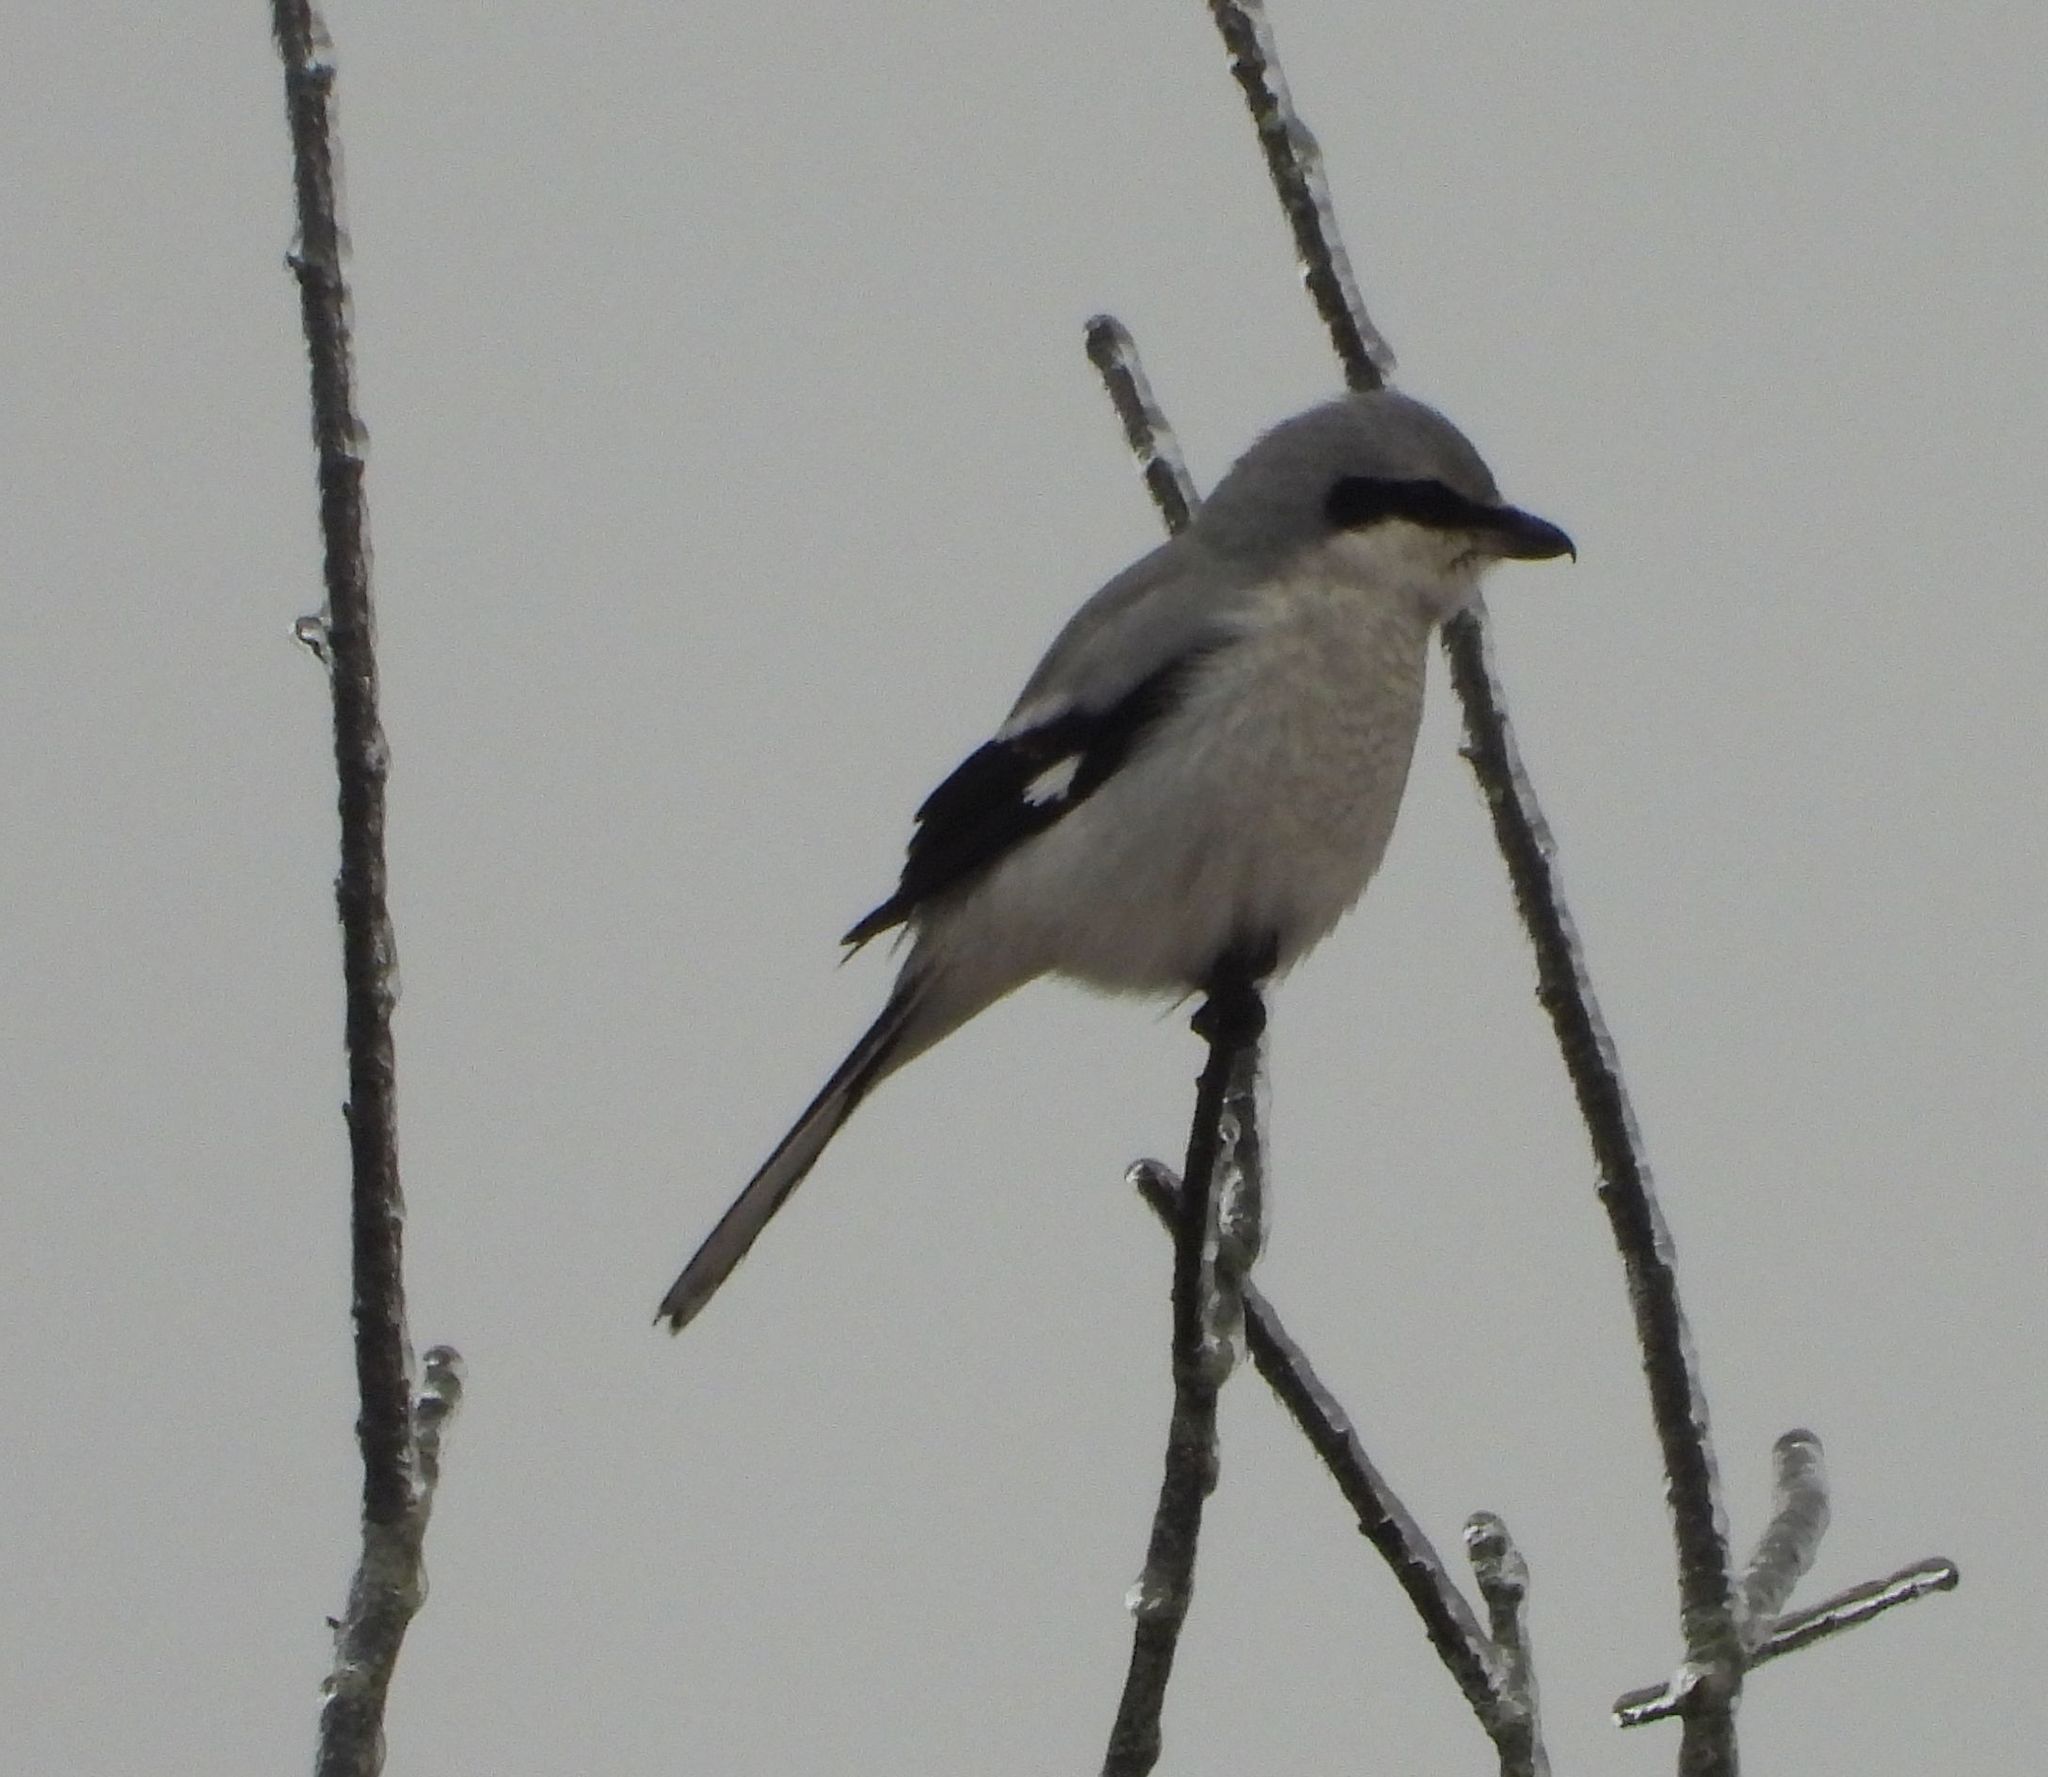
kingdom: Animalia
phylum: Chordata
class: Aves
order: Passeriformes
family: Laniidae
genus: Lanius
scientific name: Lanius borealis
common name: Northern shrike
